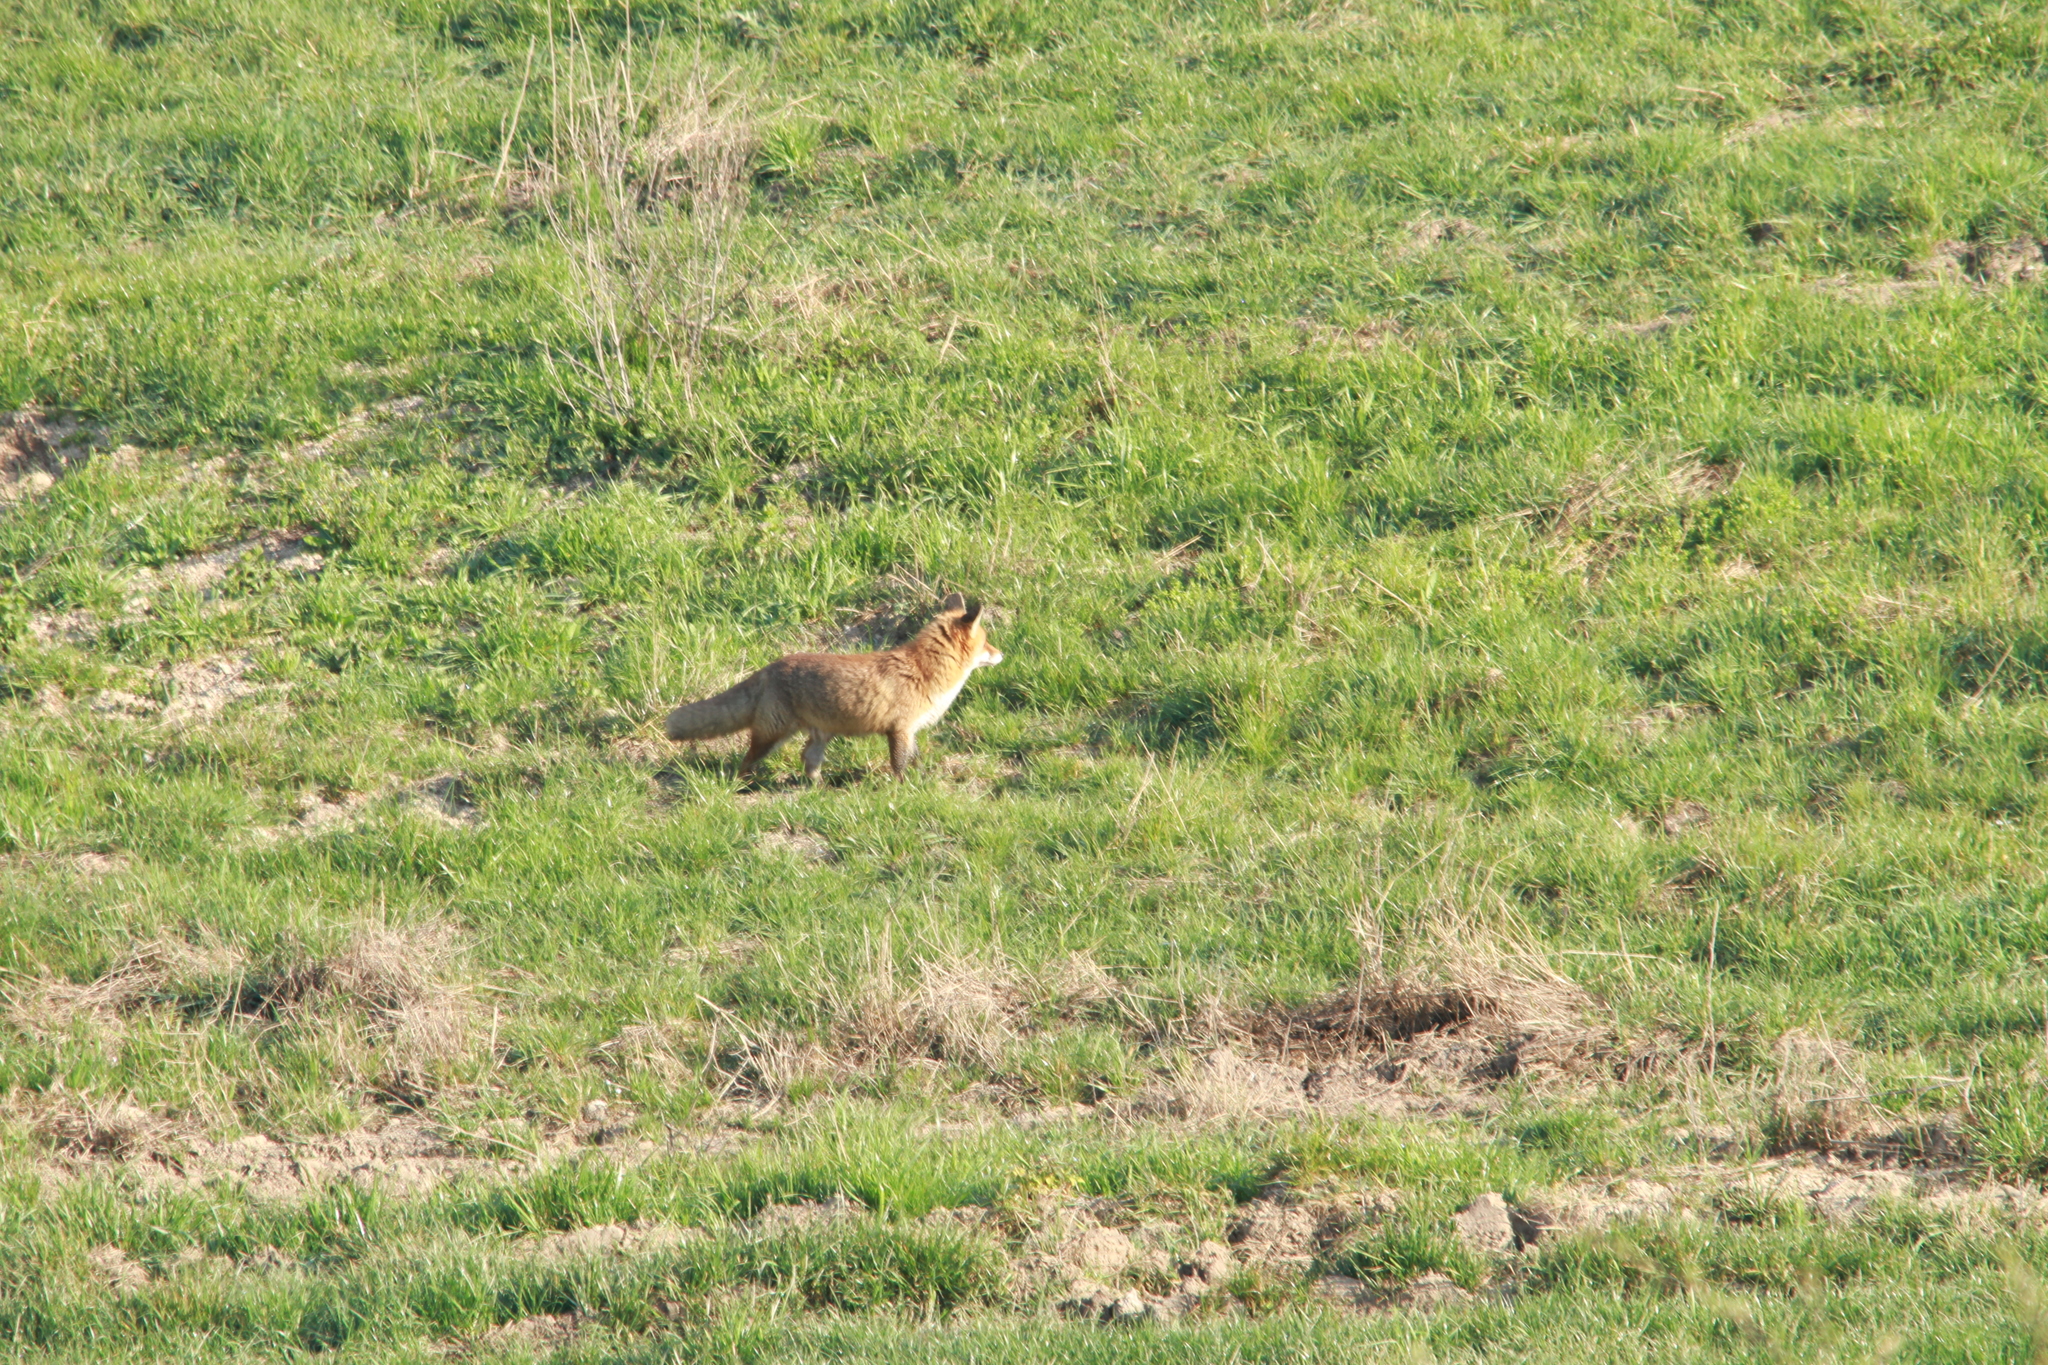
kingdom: Animalia
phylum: Chordata
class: Mammalia
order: Carnivora
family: Canidae
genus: Vulpes
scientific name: Vulpes vulpes
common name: Red fox
